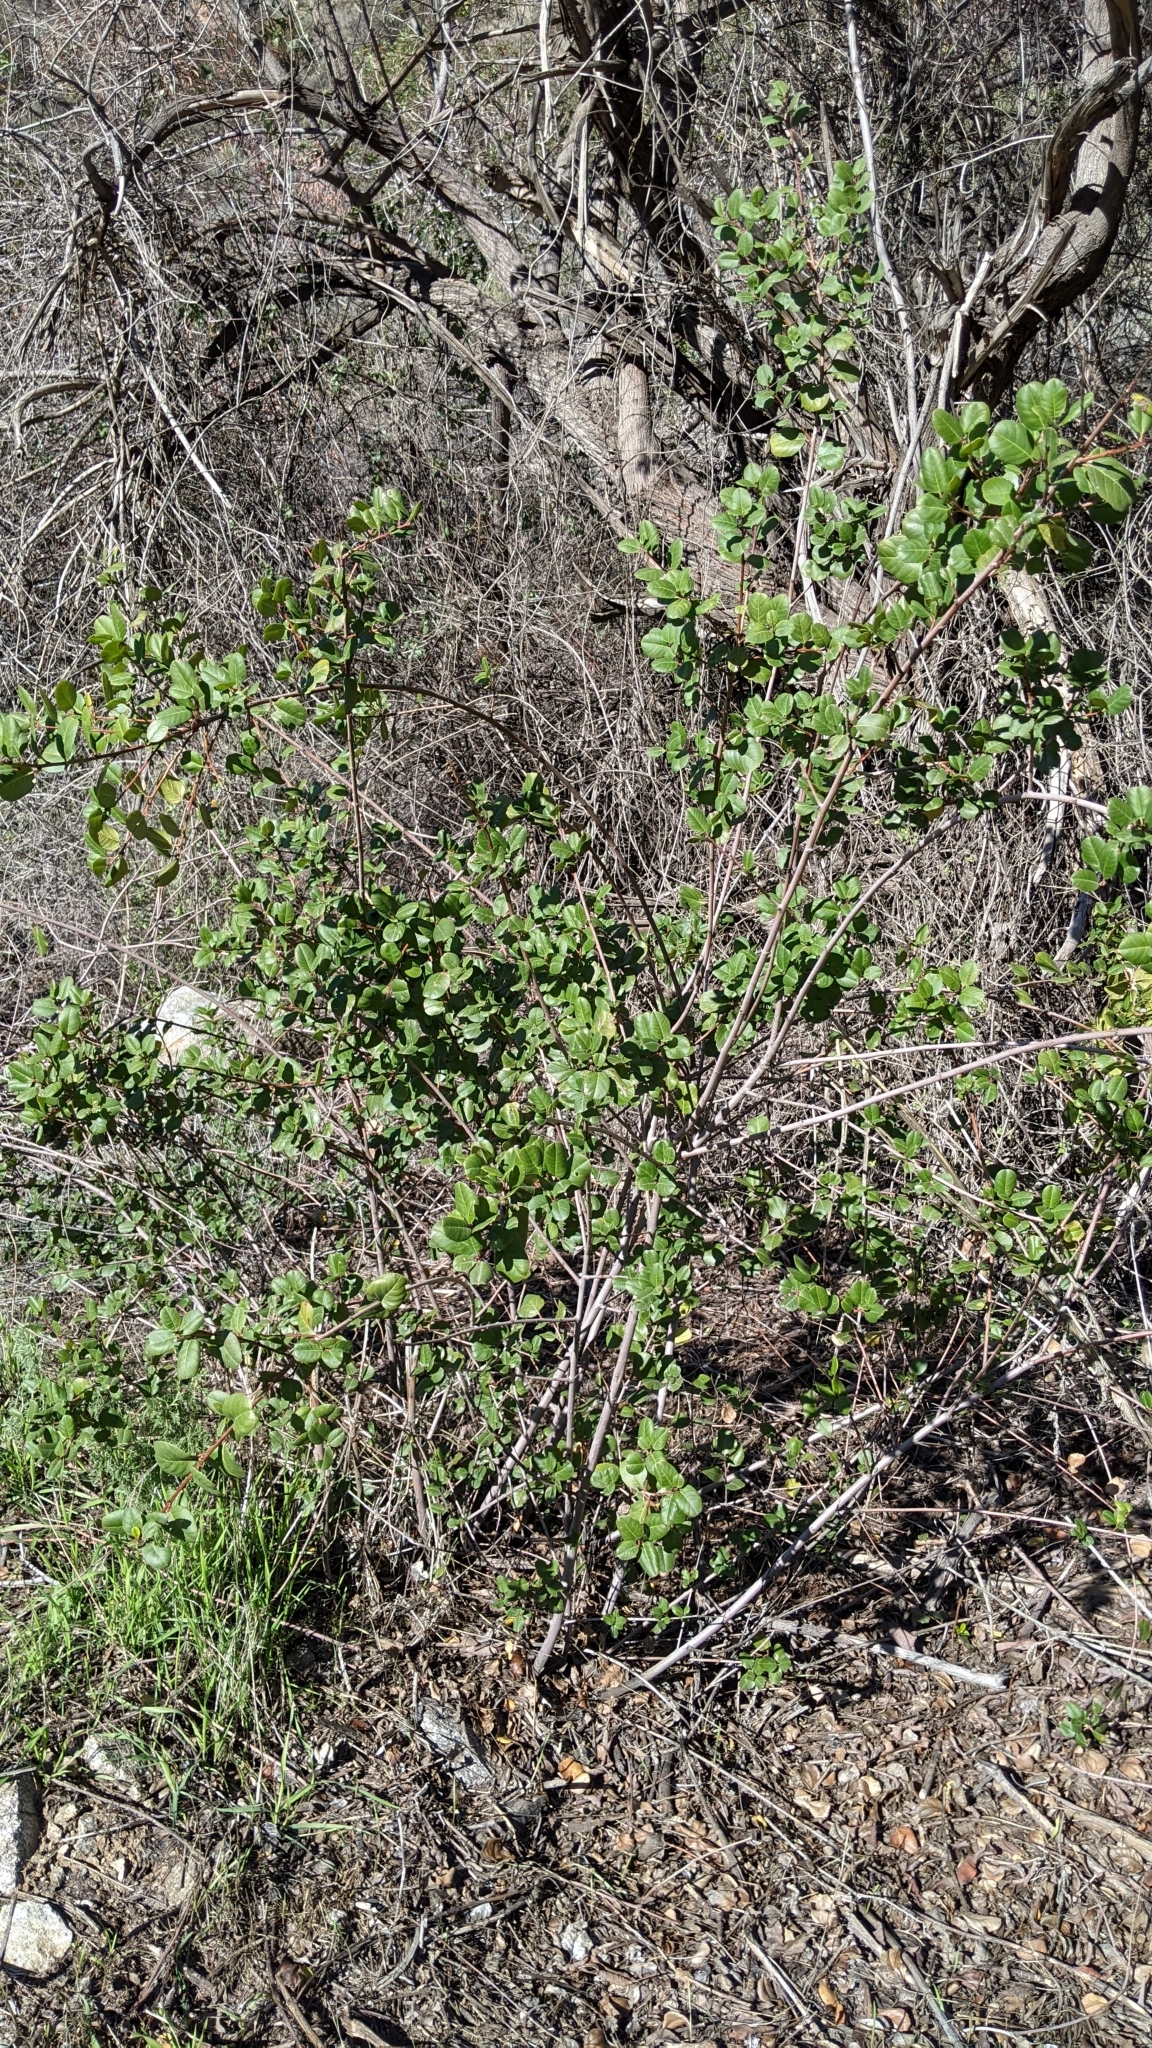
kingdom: Plantae
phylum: Tracheophyta
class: Magnoliopsida
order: Asterales
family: Asteraceae
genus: Malacothrix
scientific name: Malacothrix saxatilis
